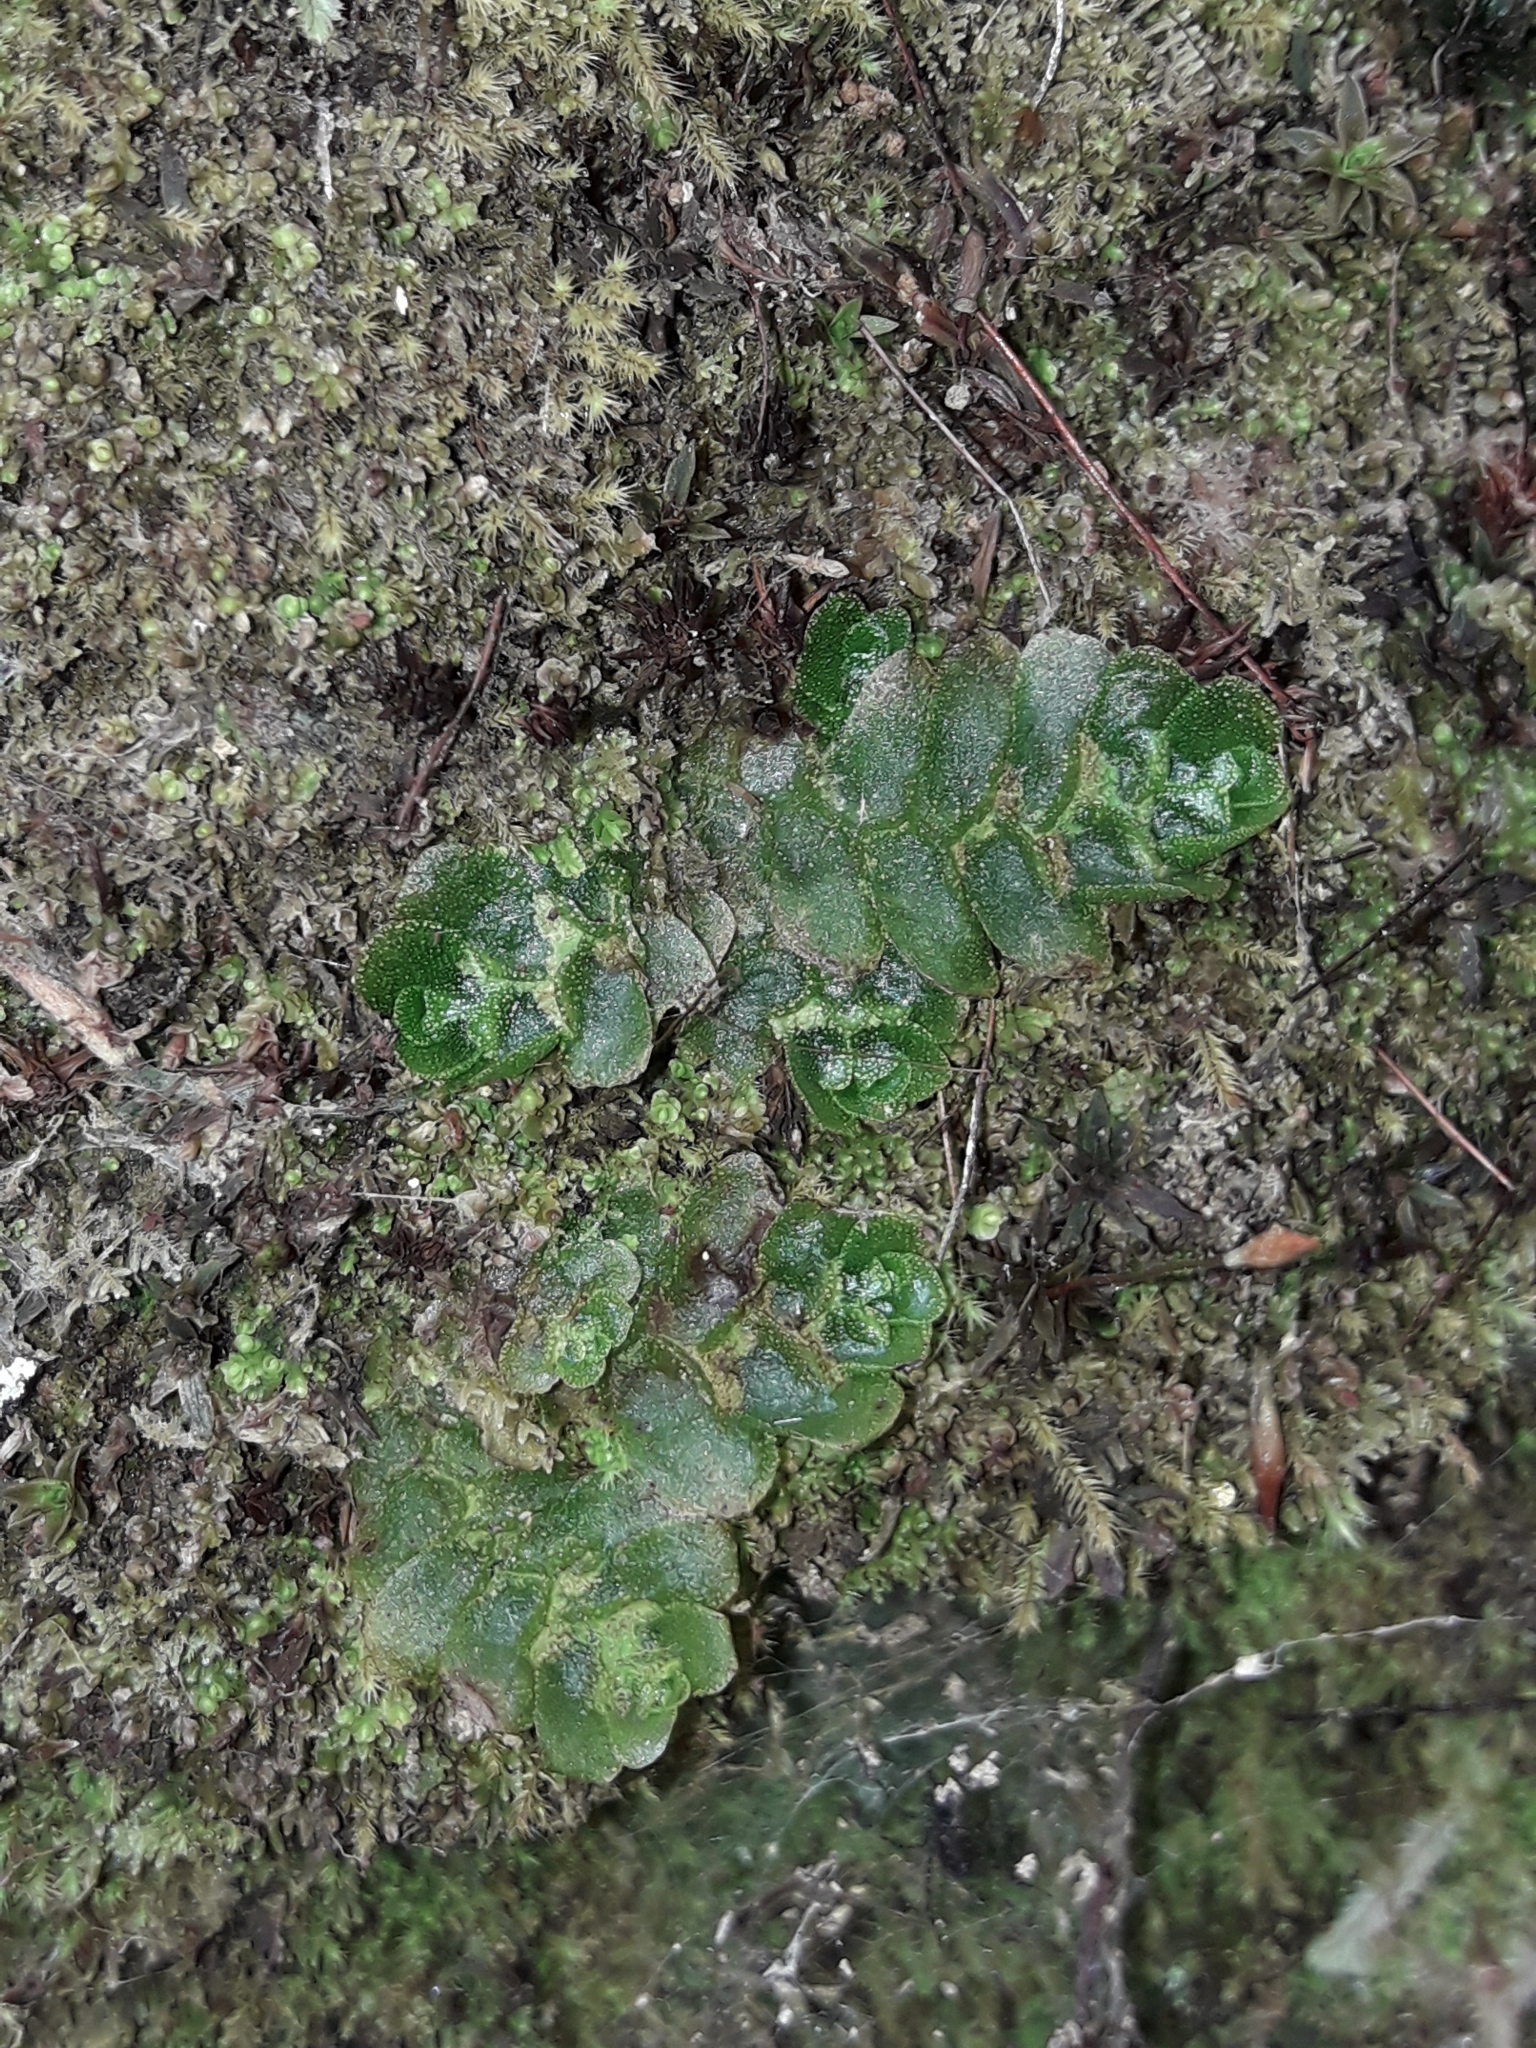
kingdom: Plantae
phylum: Marchantiophyta
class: Haplomitriopsida
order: Treubiales
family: Treubiaceae
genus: Treubia
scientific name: Treubia lacunosa
